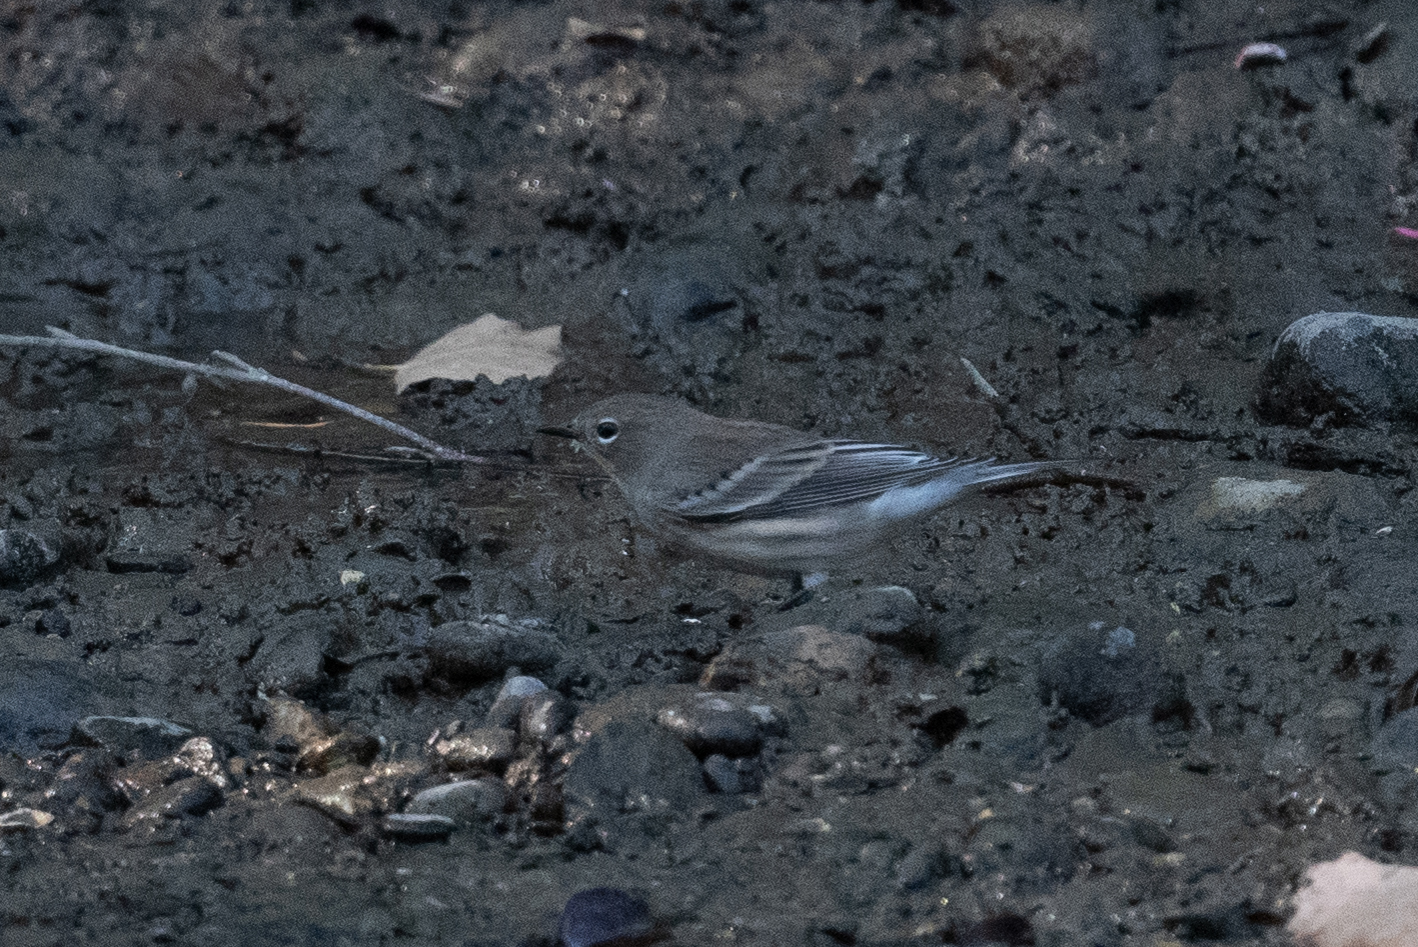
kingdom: Animalia
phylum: Chordata
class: Aves
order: Passeriformes
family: Parulidae
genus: Setophaga
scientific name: Setophaga coronata
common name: Myrtle warbler
